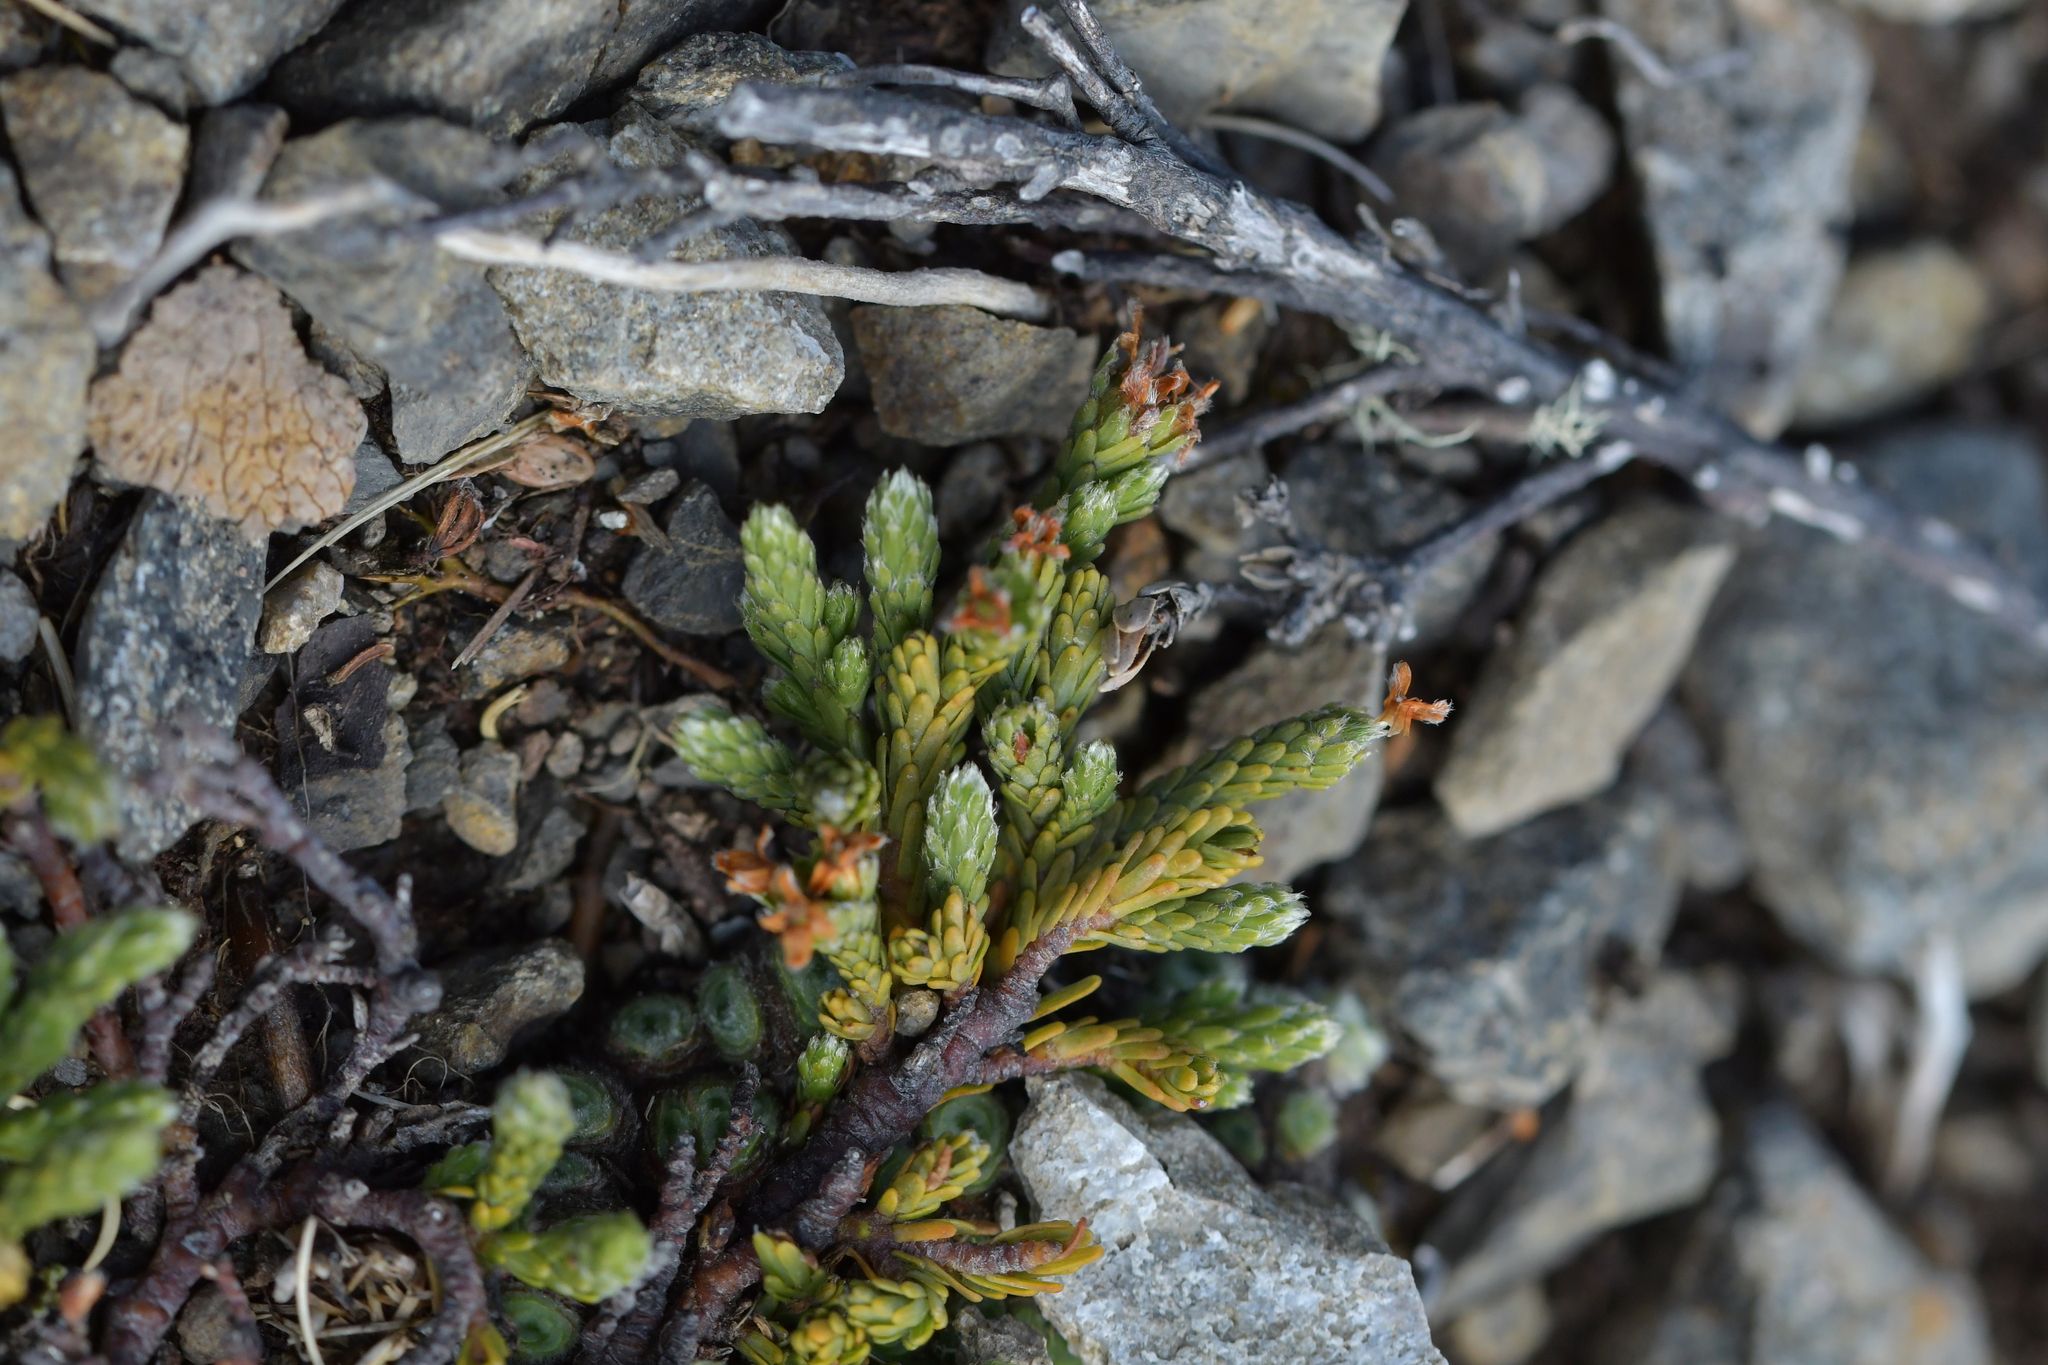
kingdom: Plantae
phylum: Tracheophyta
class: Magnoliopsida
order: Malvales
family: Thymelaeaceae
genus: Kelleria
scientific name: Kelleria dieffenbachii
